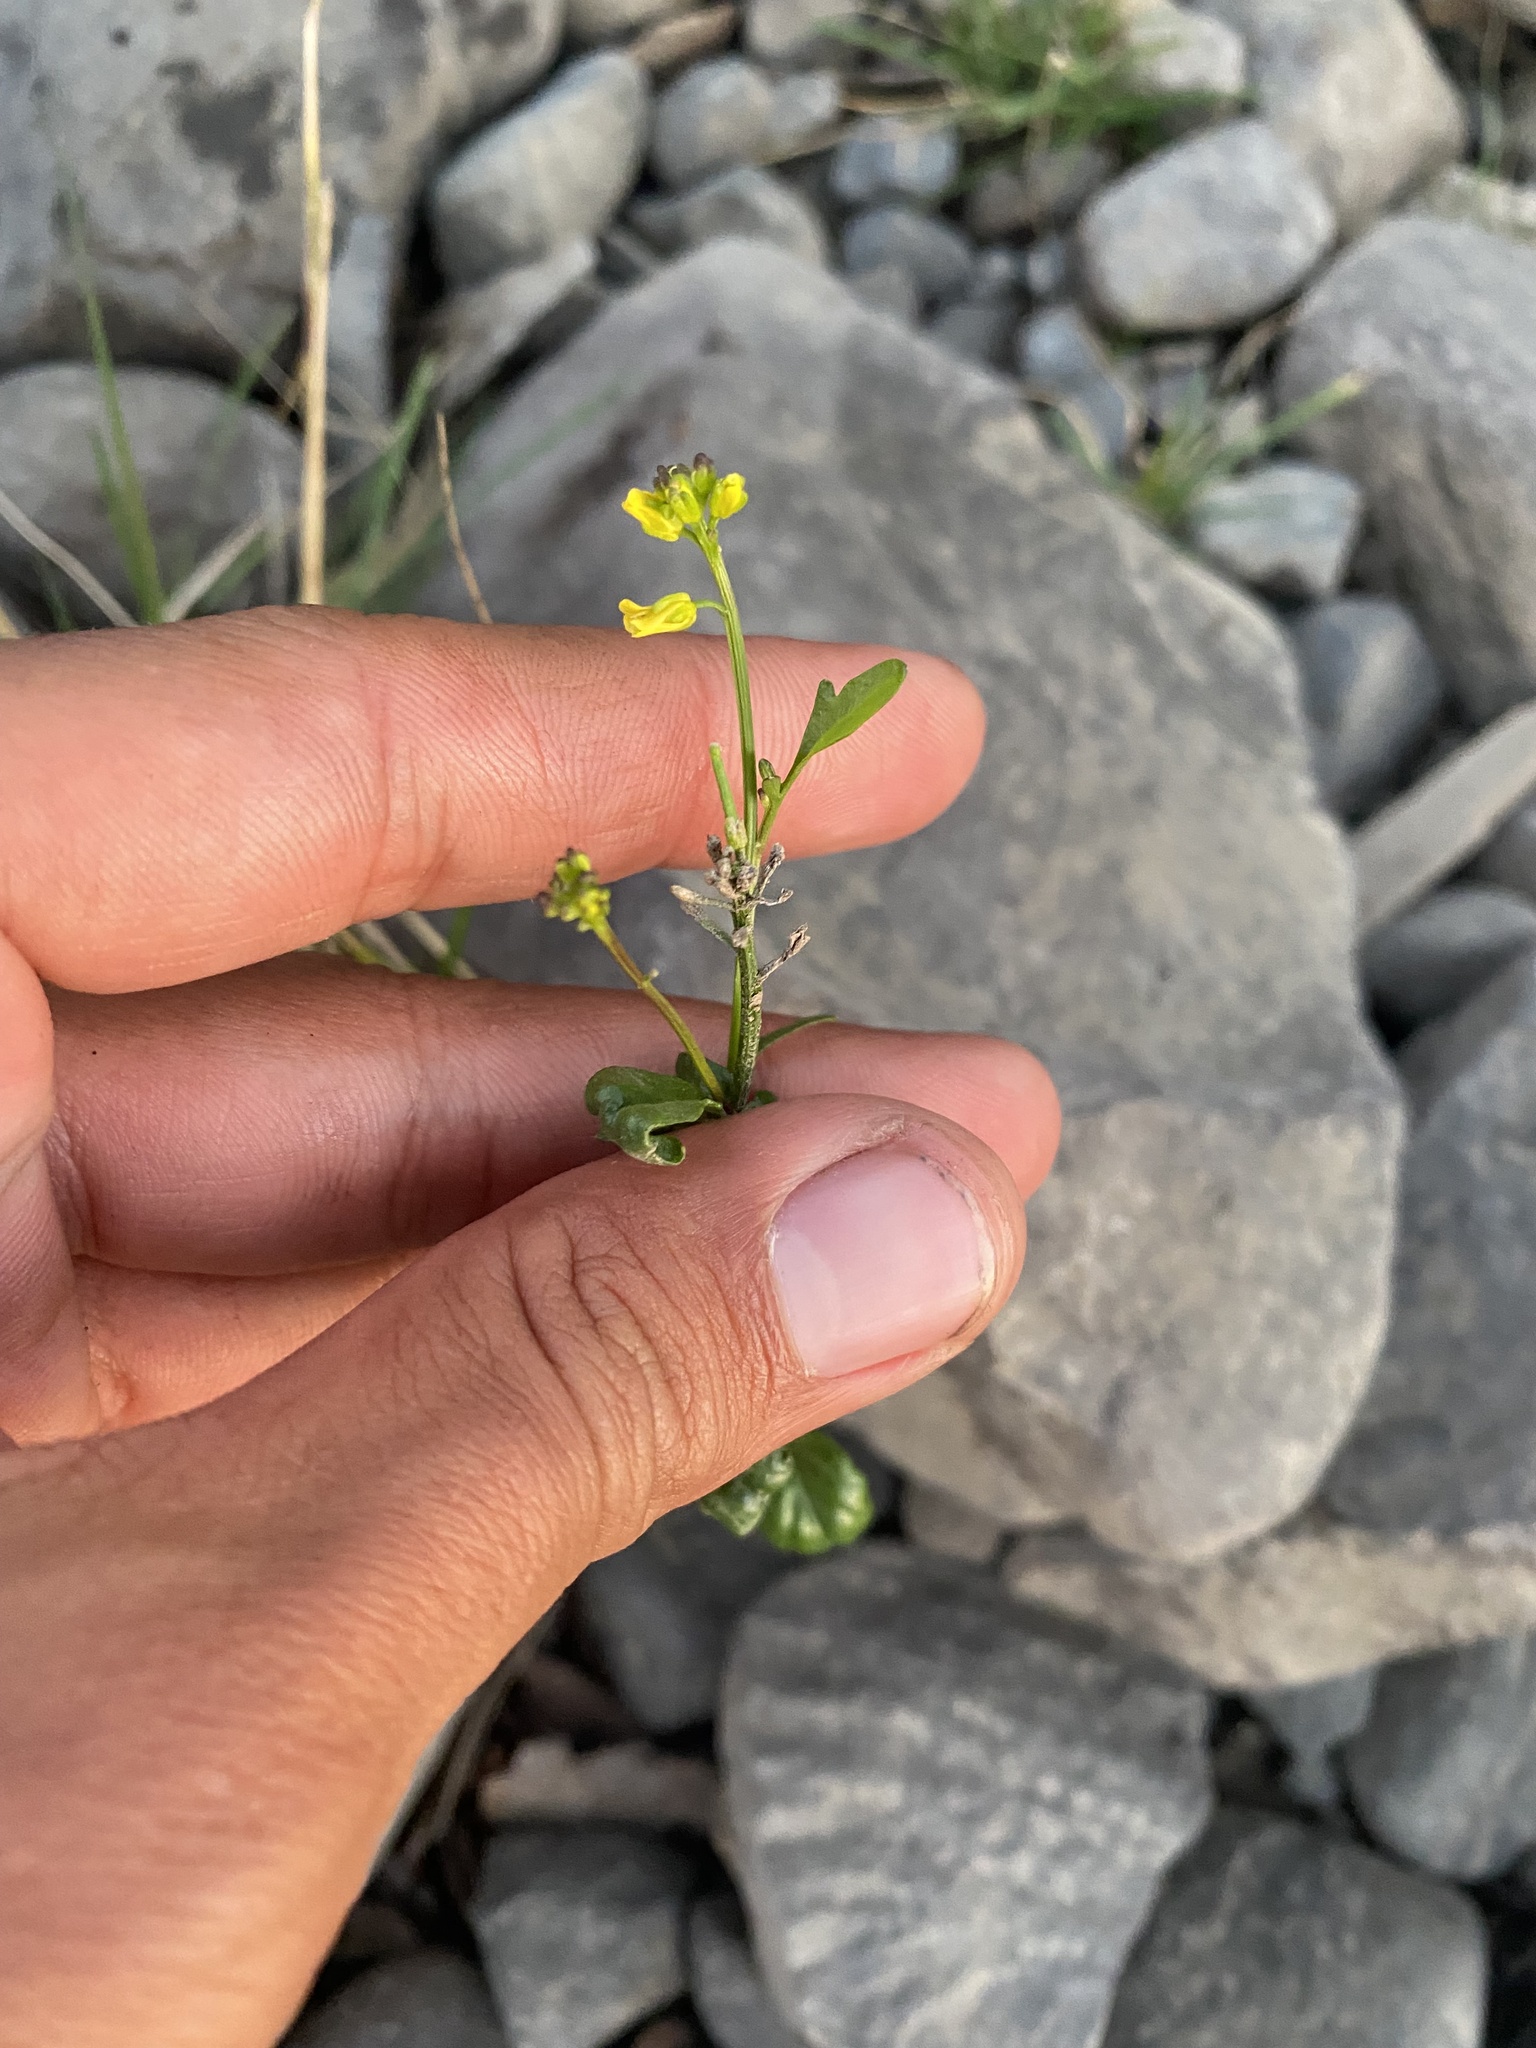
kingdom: Plantae
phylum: Tracheophyta
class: Magnoliopsida
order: Brassicales
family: Brassicaceae
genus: Barbarea
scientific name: Barbarea orthoceras
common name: American wintercress
